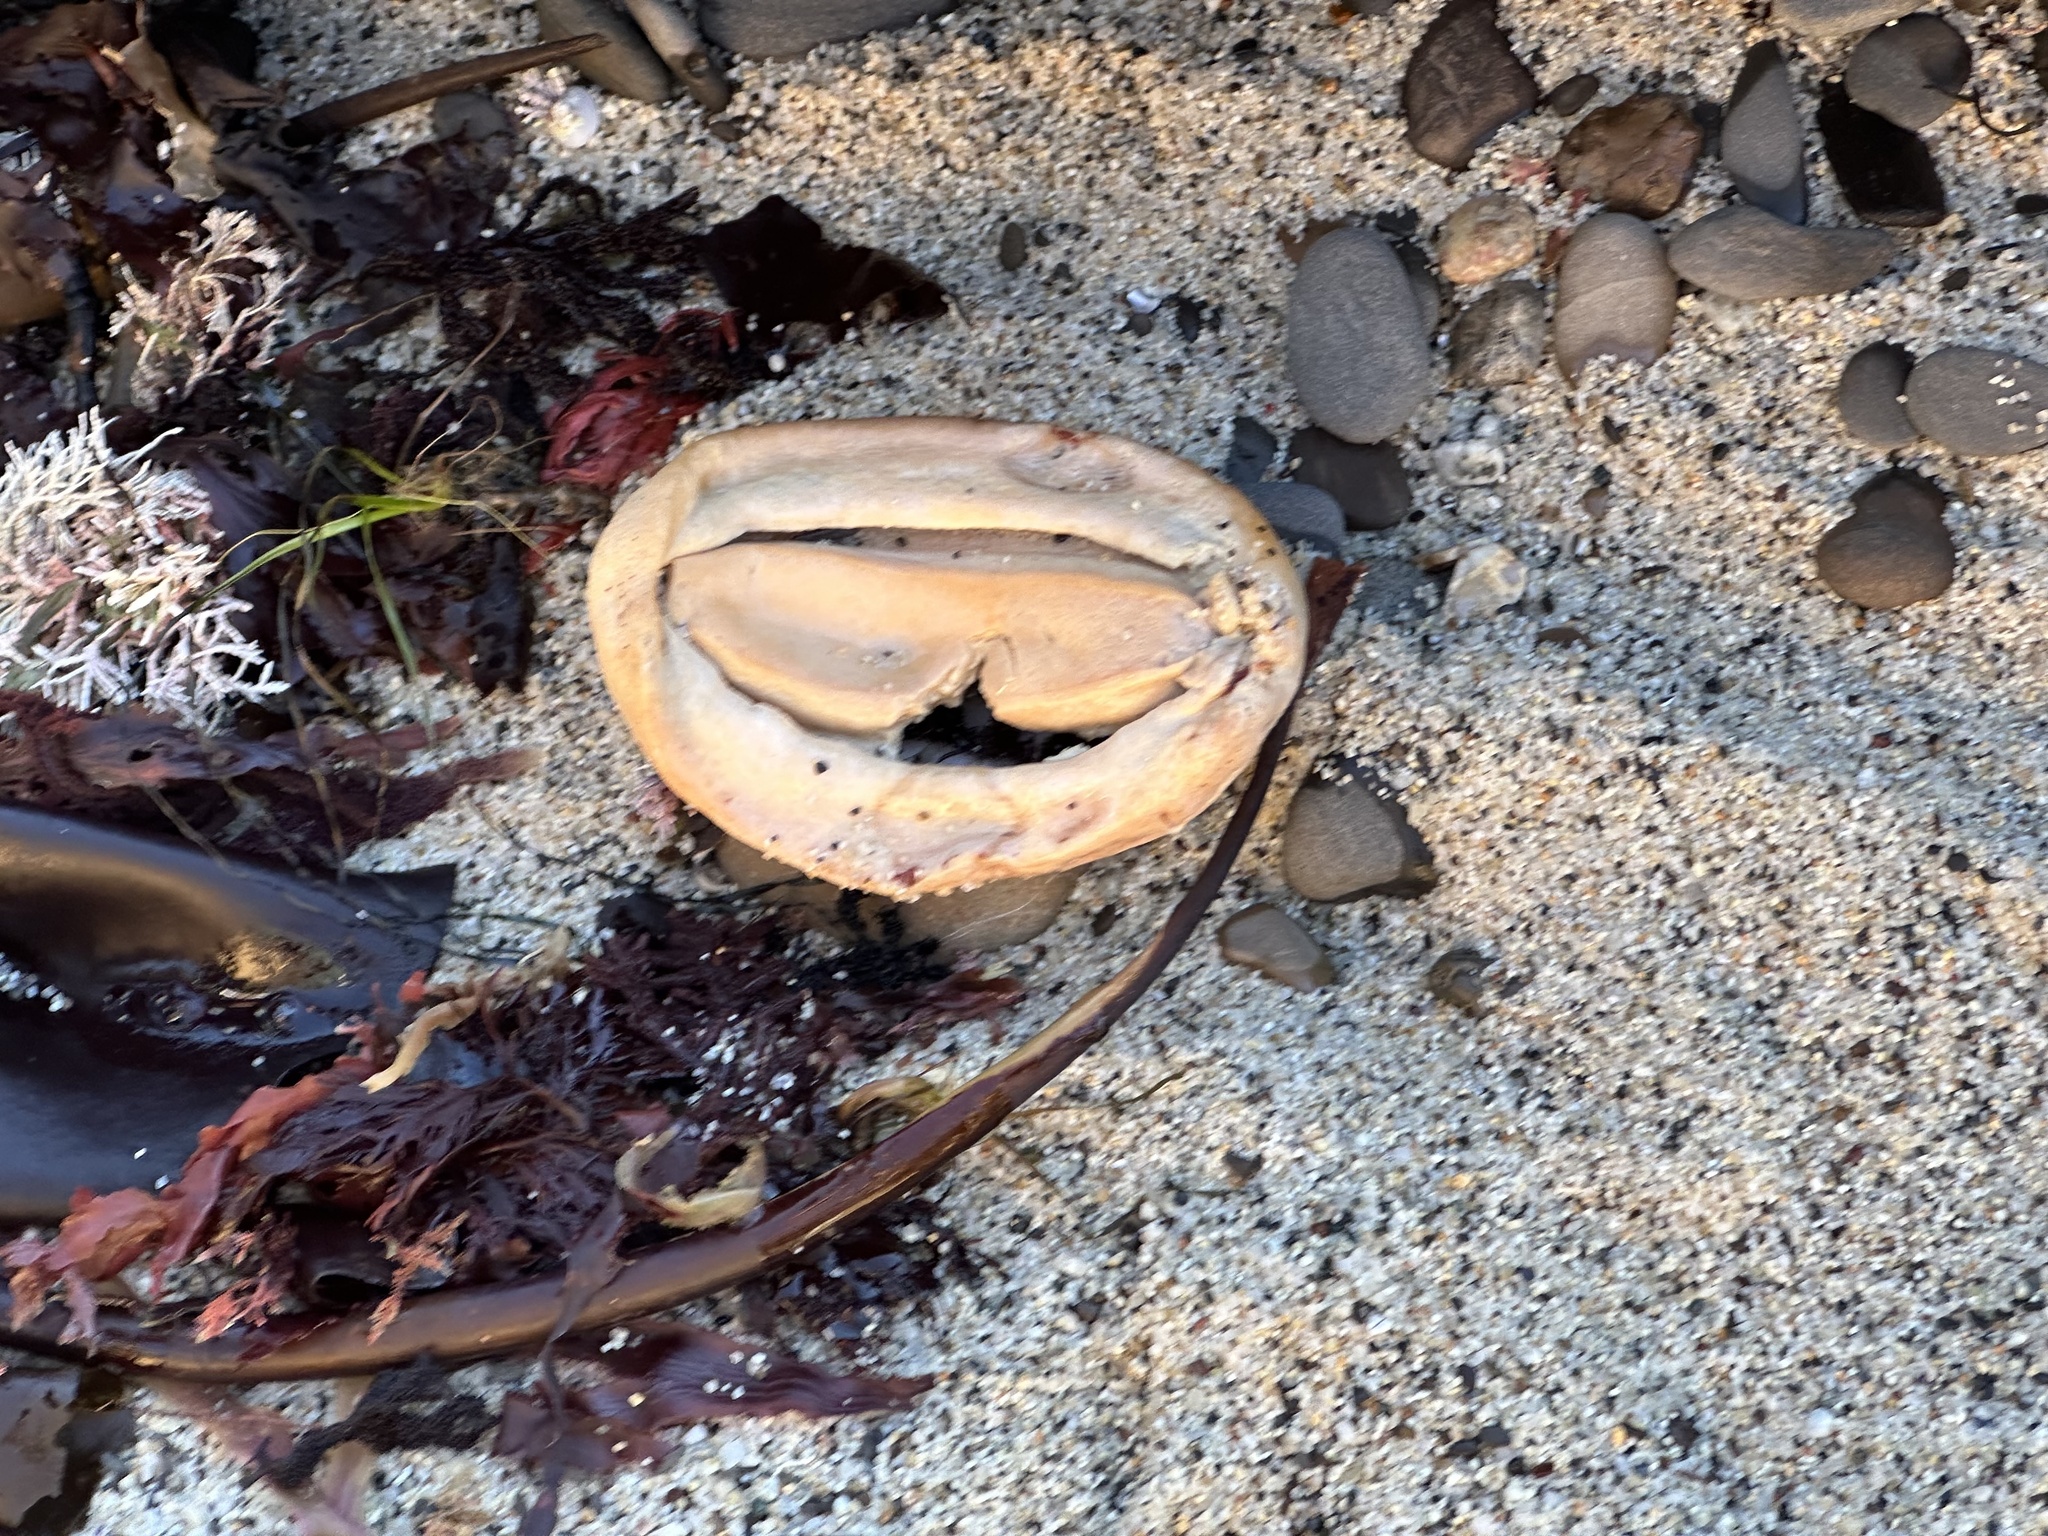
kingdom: Animalia
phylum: Mollusca
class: Polyplacophora
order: Chitonida
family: Acanthochitonidae
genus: Cryptochiton
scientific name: Cryptochiton stelleri
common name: Giant pacific chiton
